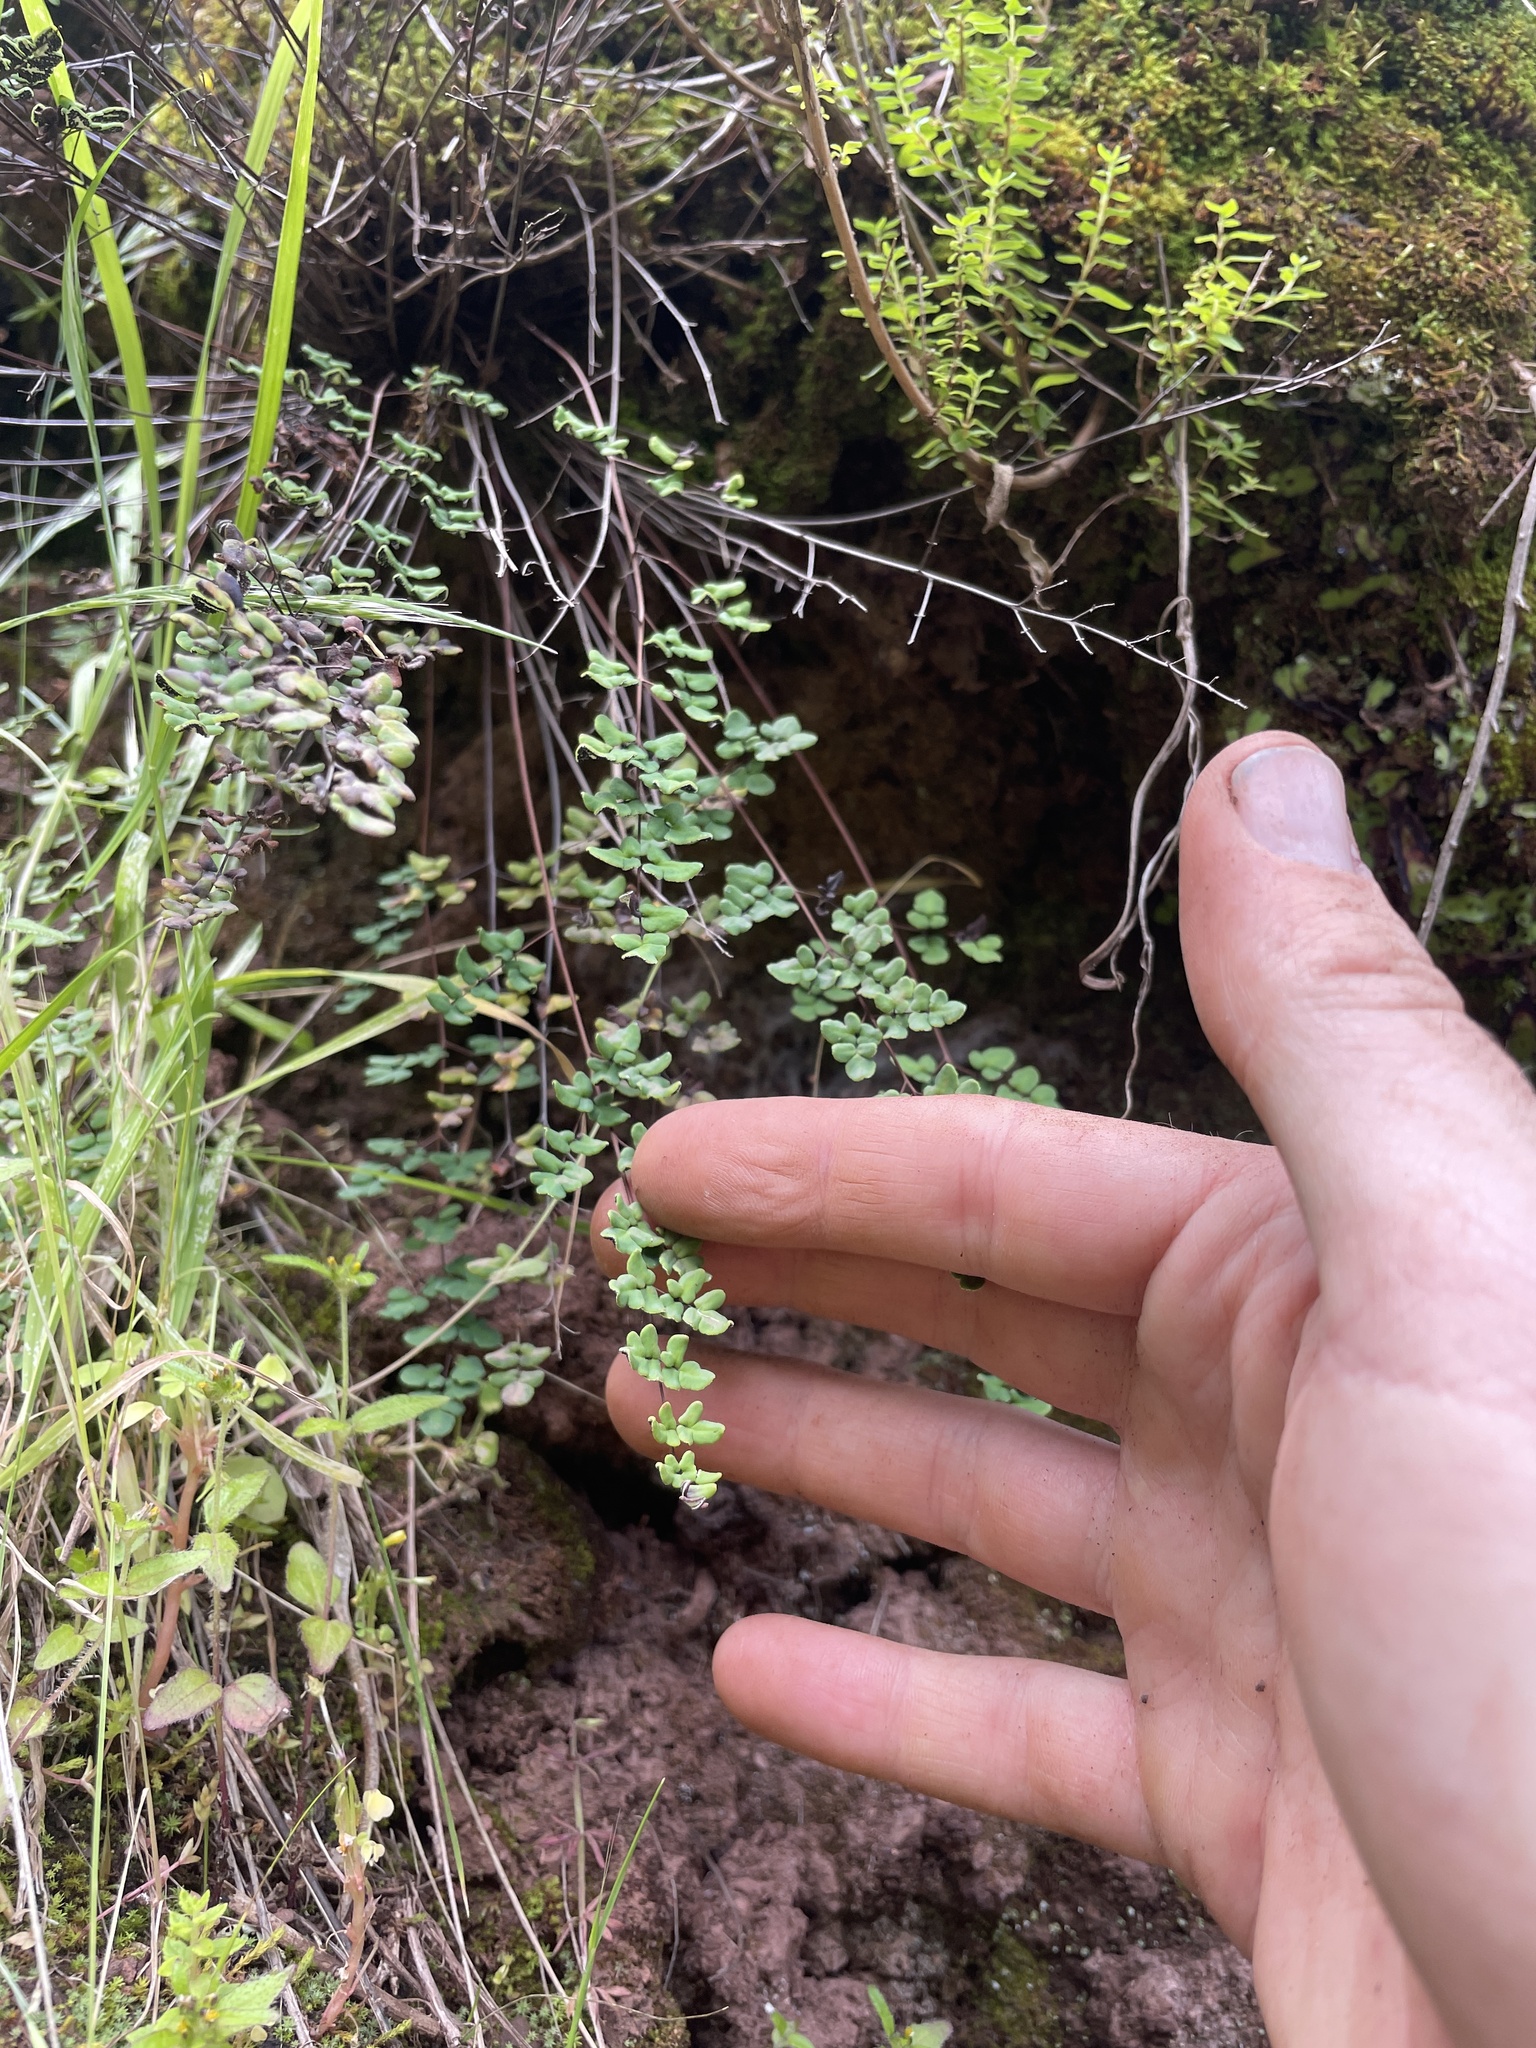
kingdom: Plantae
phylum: Tracheophyta
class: Polypodiopsida
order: Polypodiales
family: Pteridaceae
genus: Argyrochosma
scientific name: Argyrochosma nivea
